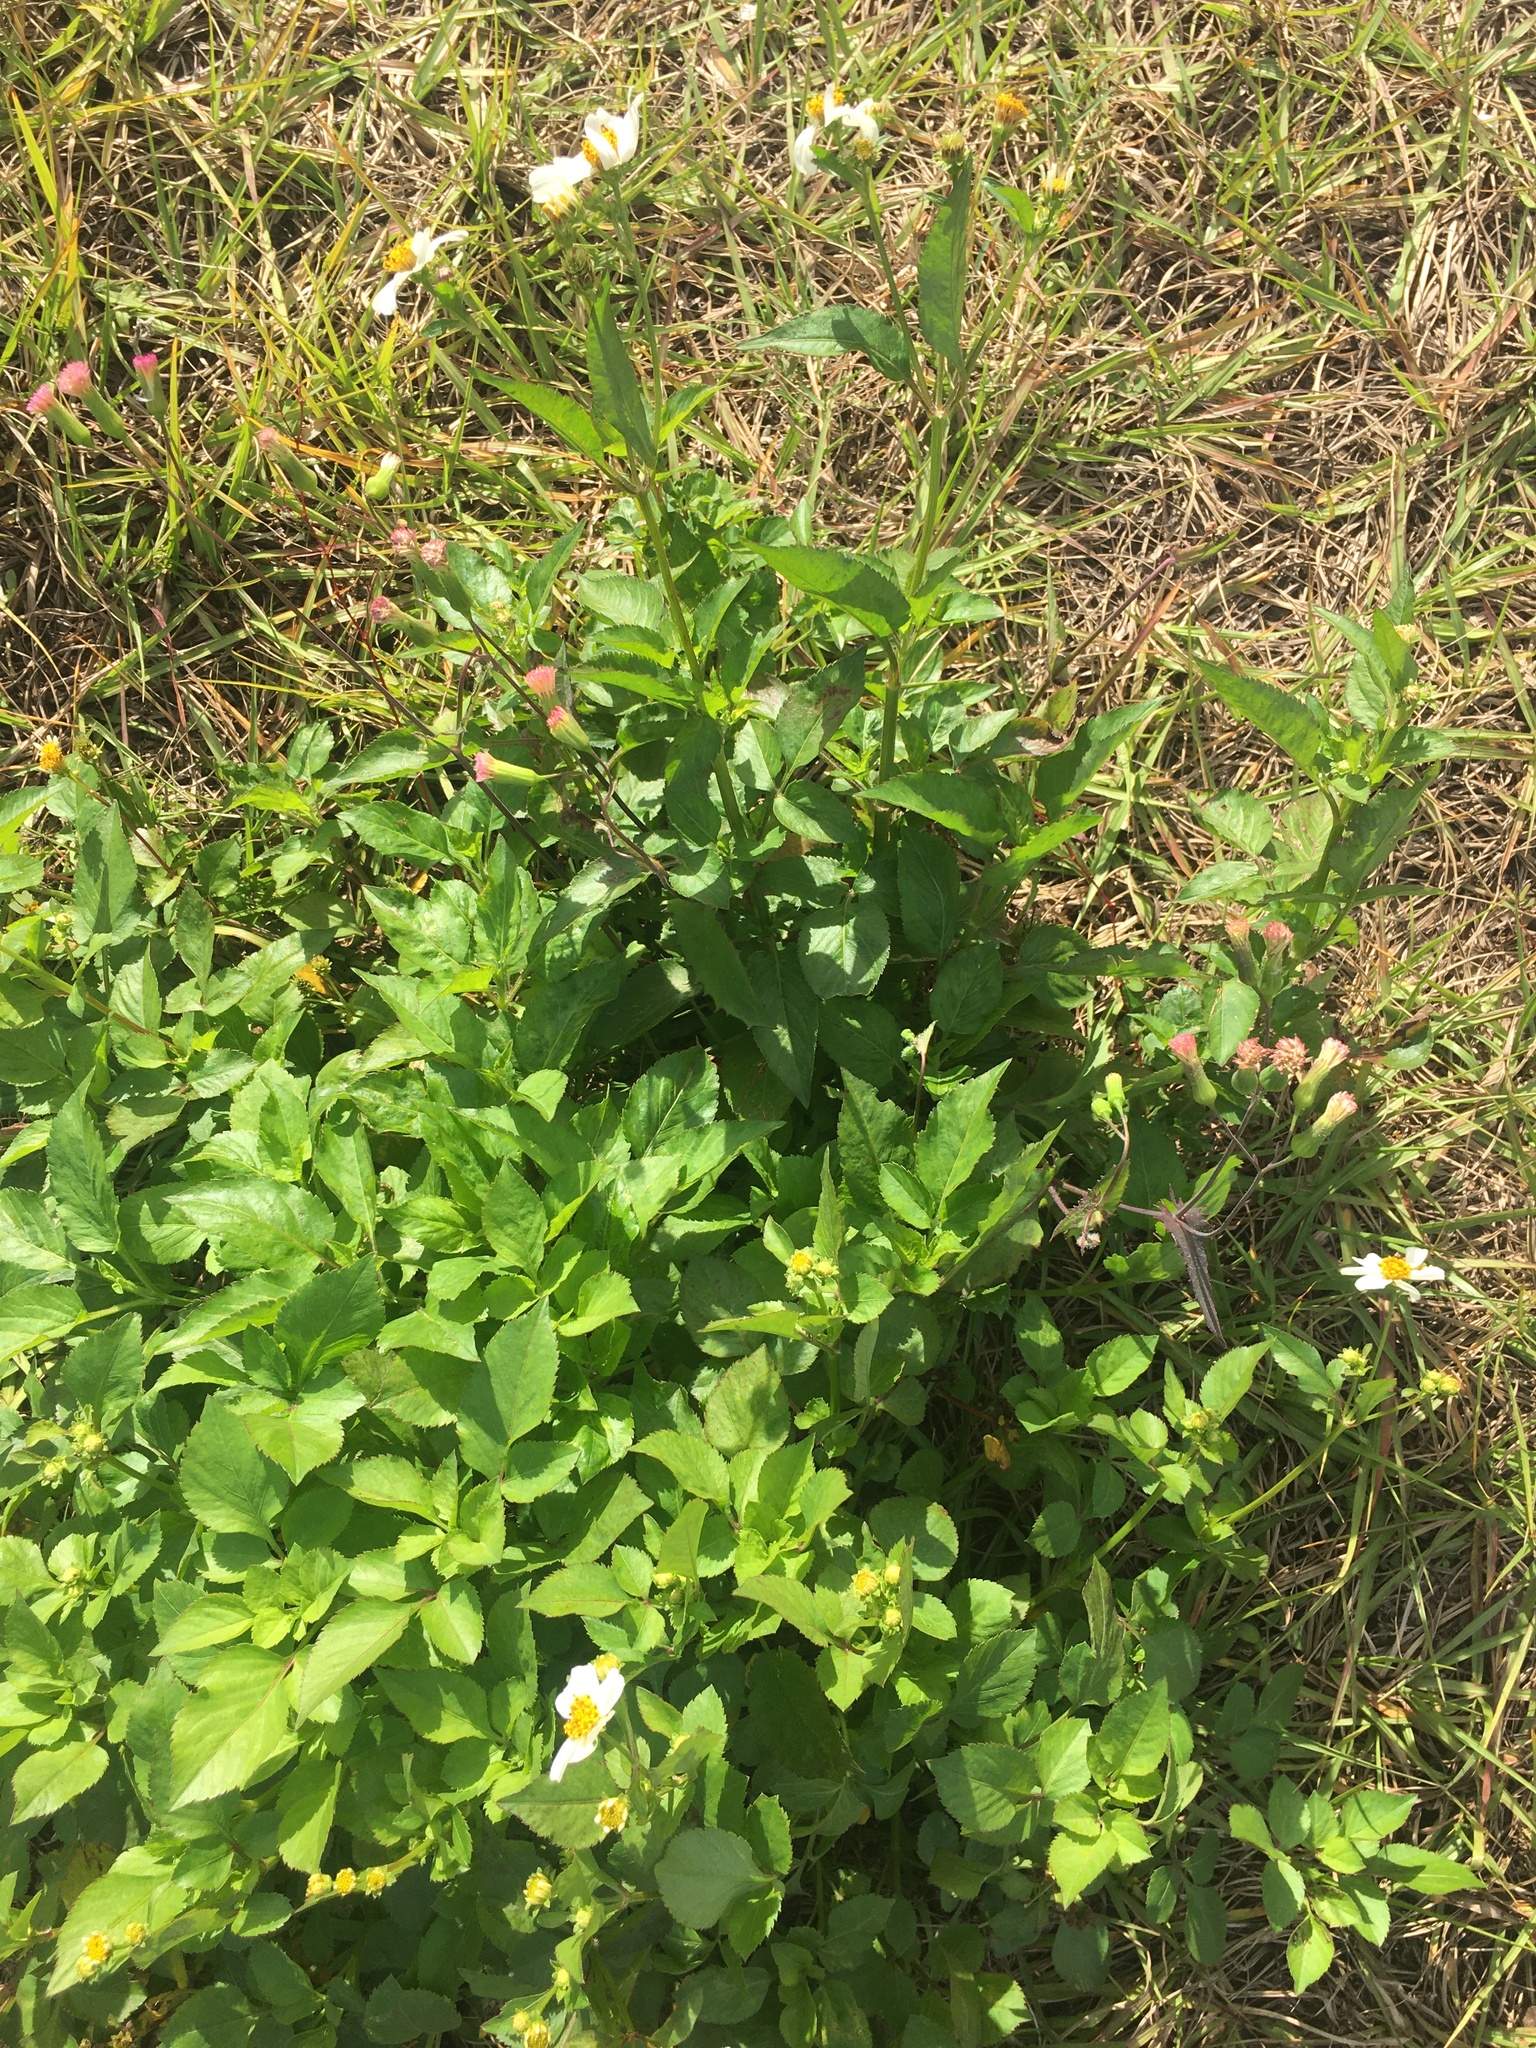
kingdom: Plantae
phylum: Tracheophyta
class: Magnoliopsida
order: Asterales
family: Asteraceae
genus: Bidens
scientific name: Bidens alba
